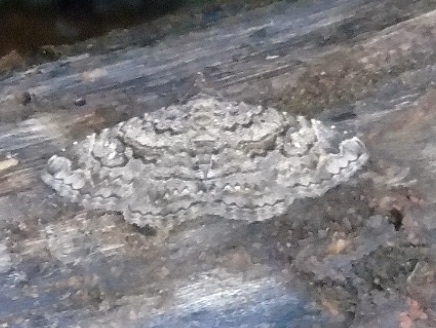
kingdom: Animalia
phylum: Arthropoda
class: Insecta
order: Lepidoptera
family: Erebidae
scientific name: Erebidae
